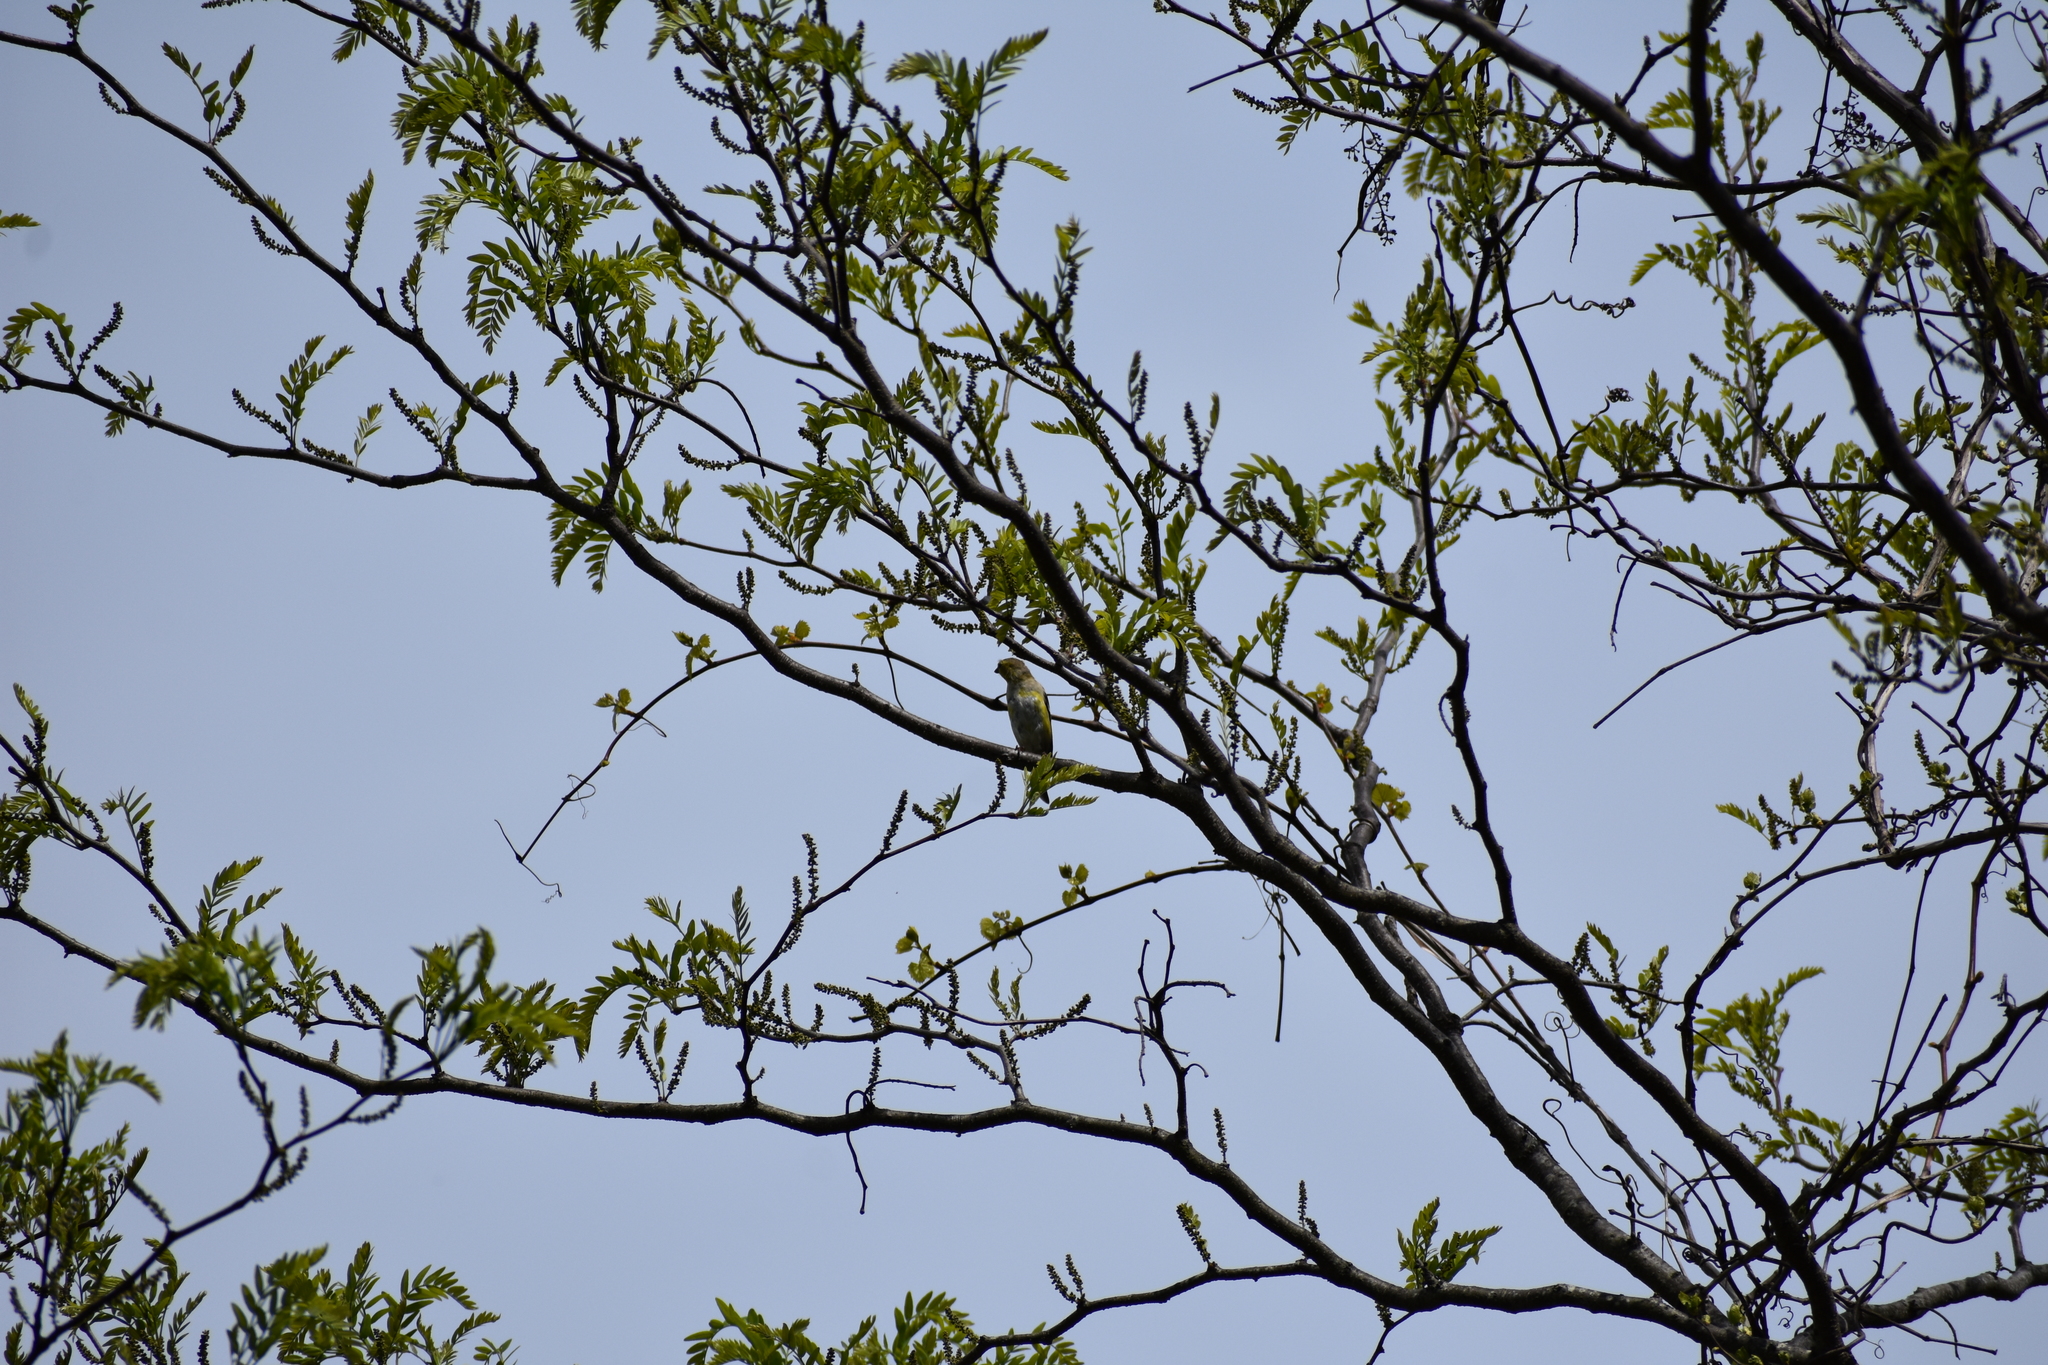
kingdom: Animalia
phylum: Chordata
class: Aves
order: Passeriformes
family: Fringillidae
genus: Spinus
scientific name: Spinus tristis
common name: American goldfinch
